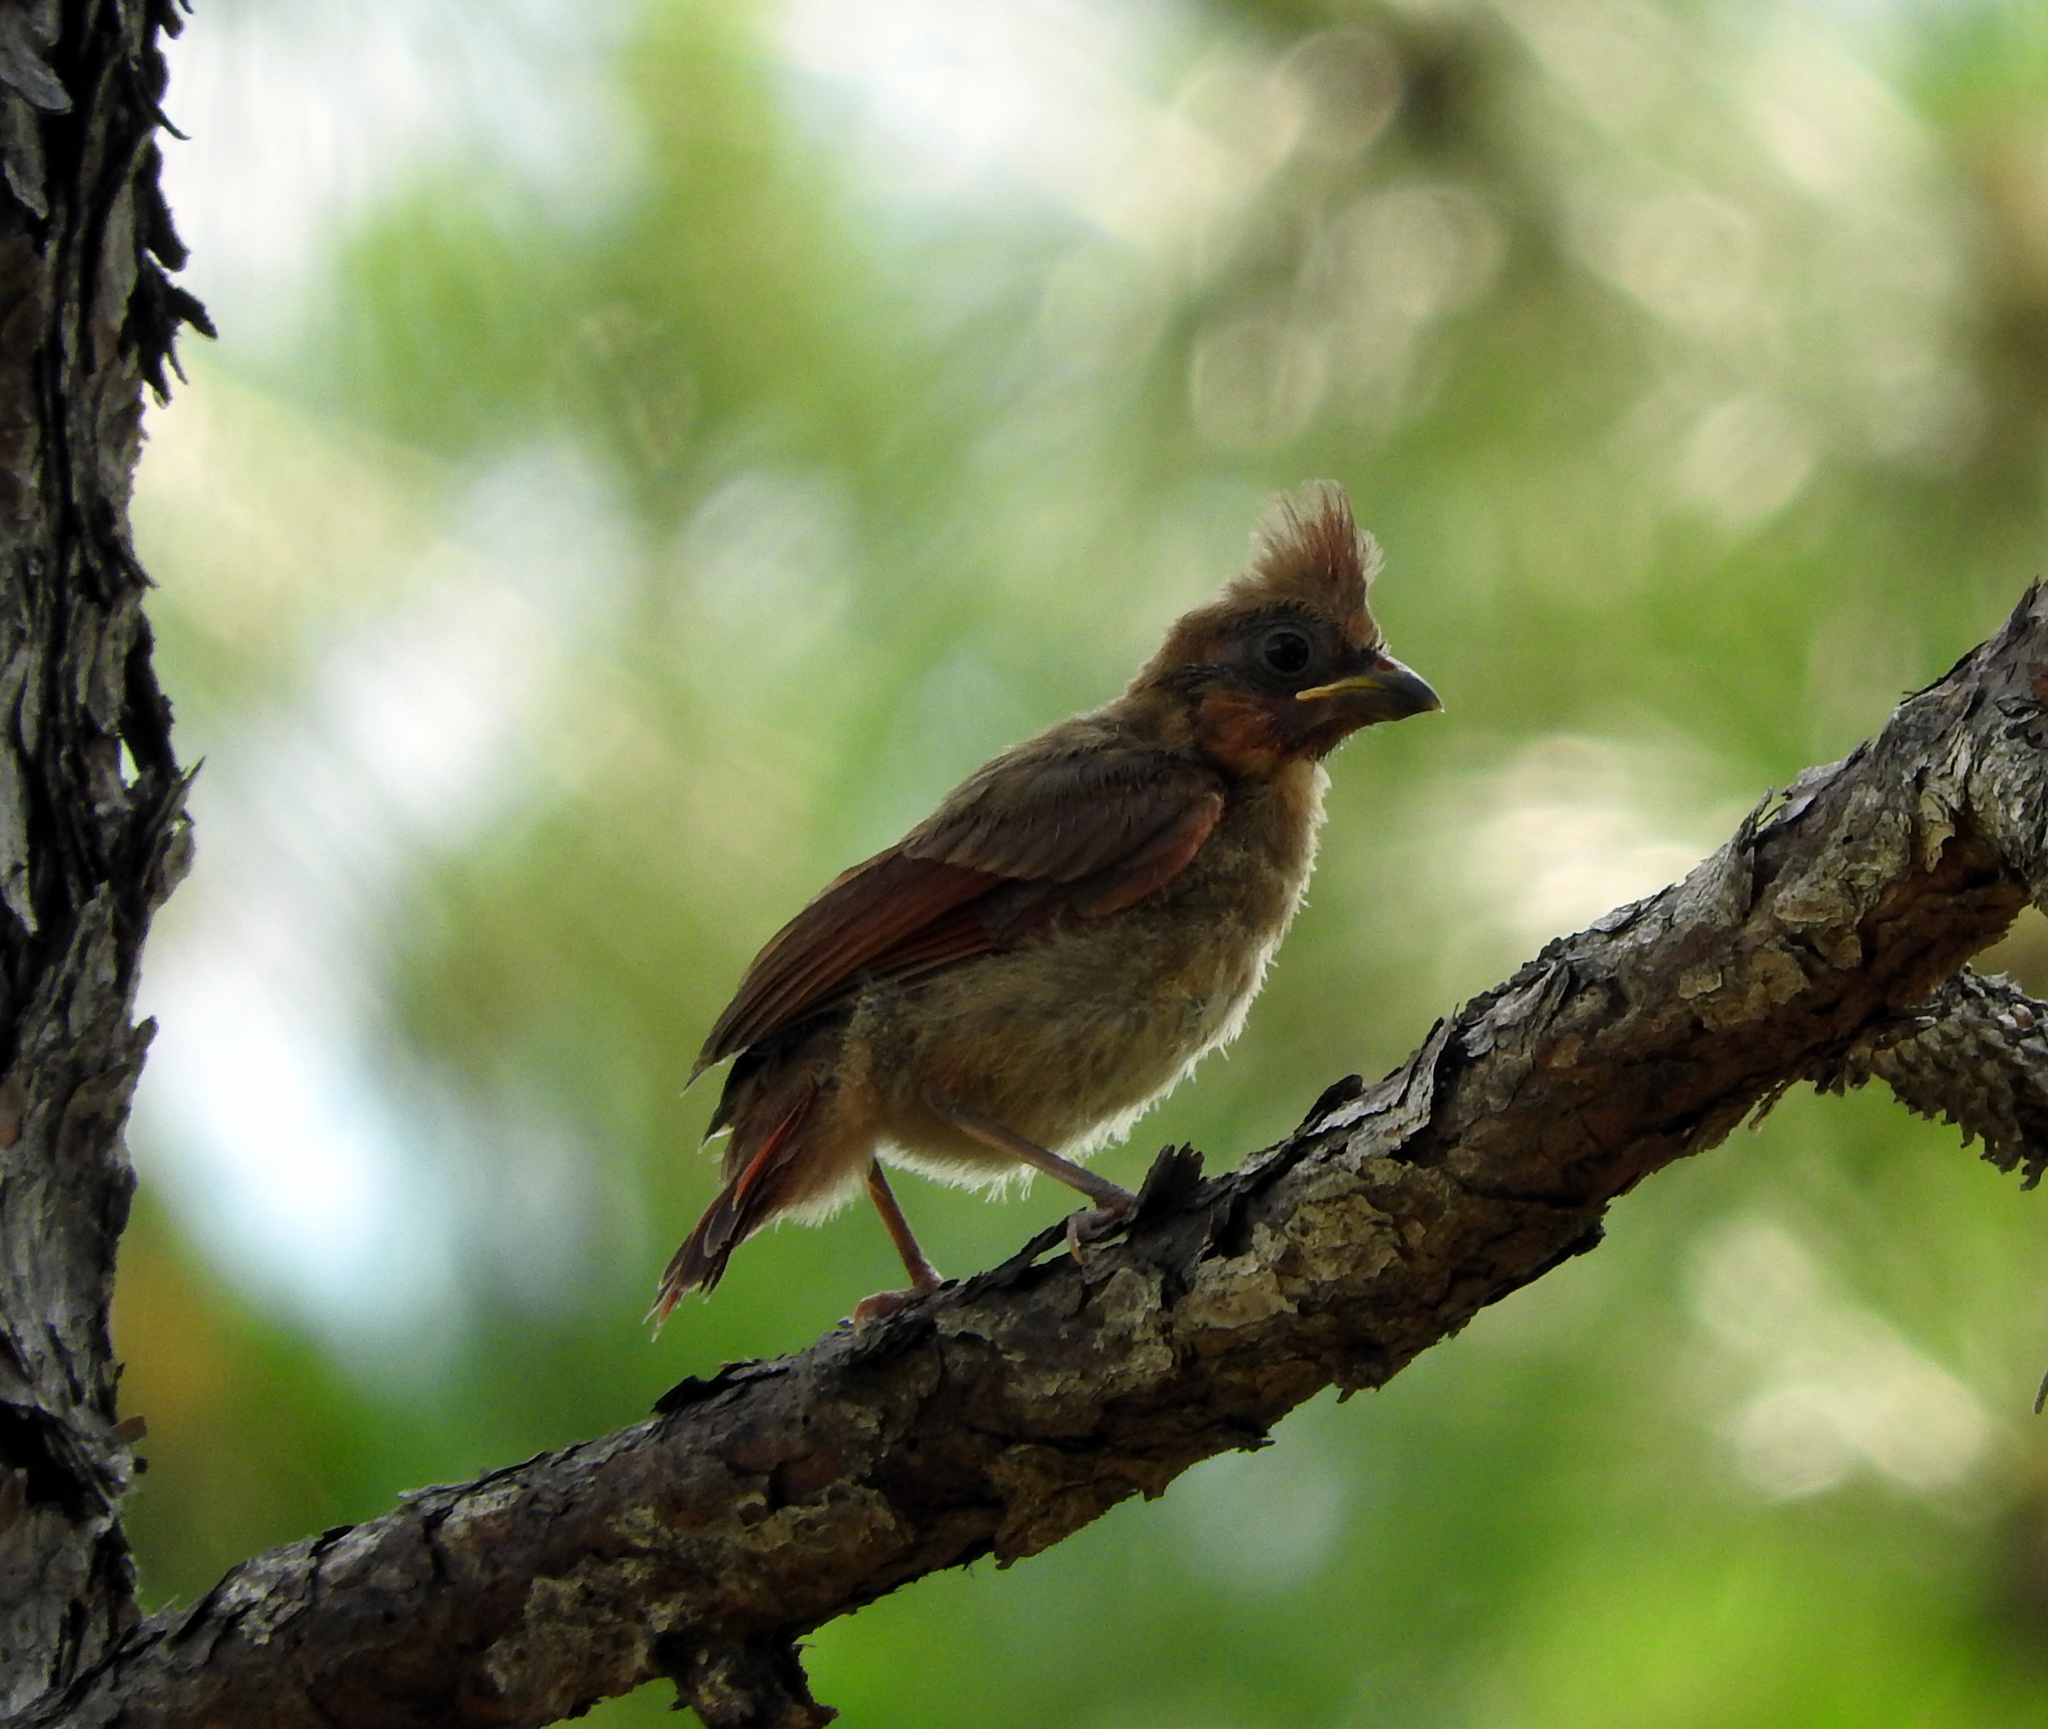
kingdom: Animalia
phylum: Chordata
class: Aves
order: Passeriformes
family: Cardinalidae
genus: Cardinalis
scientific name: Cardinalis cardinalis
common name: Northern cardinal
